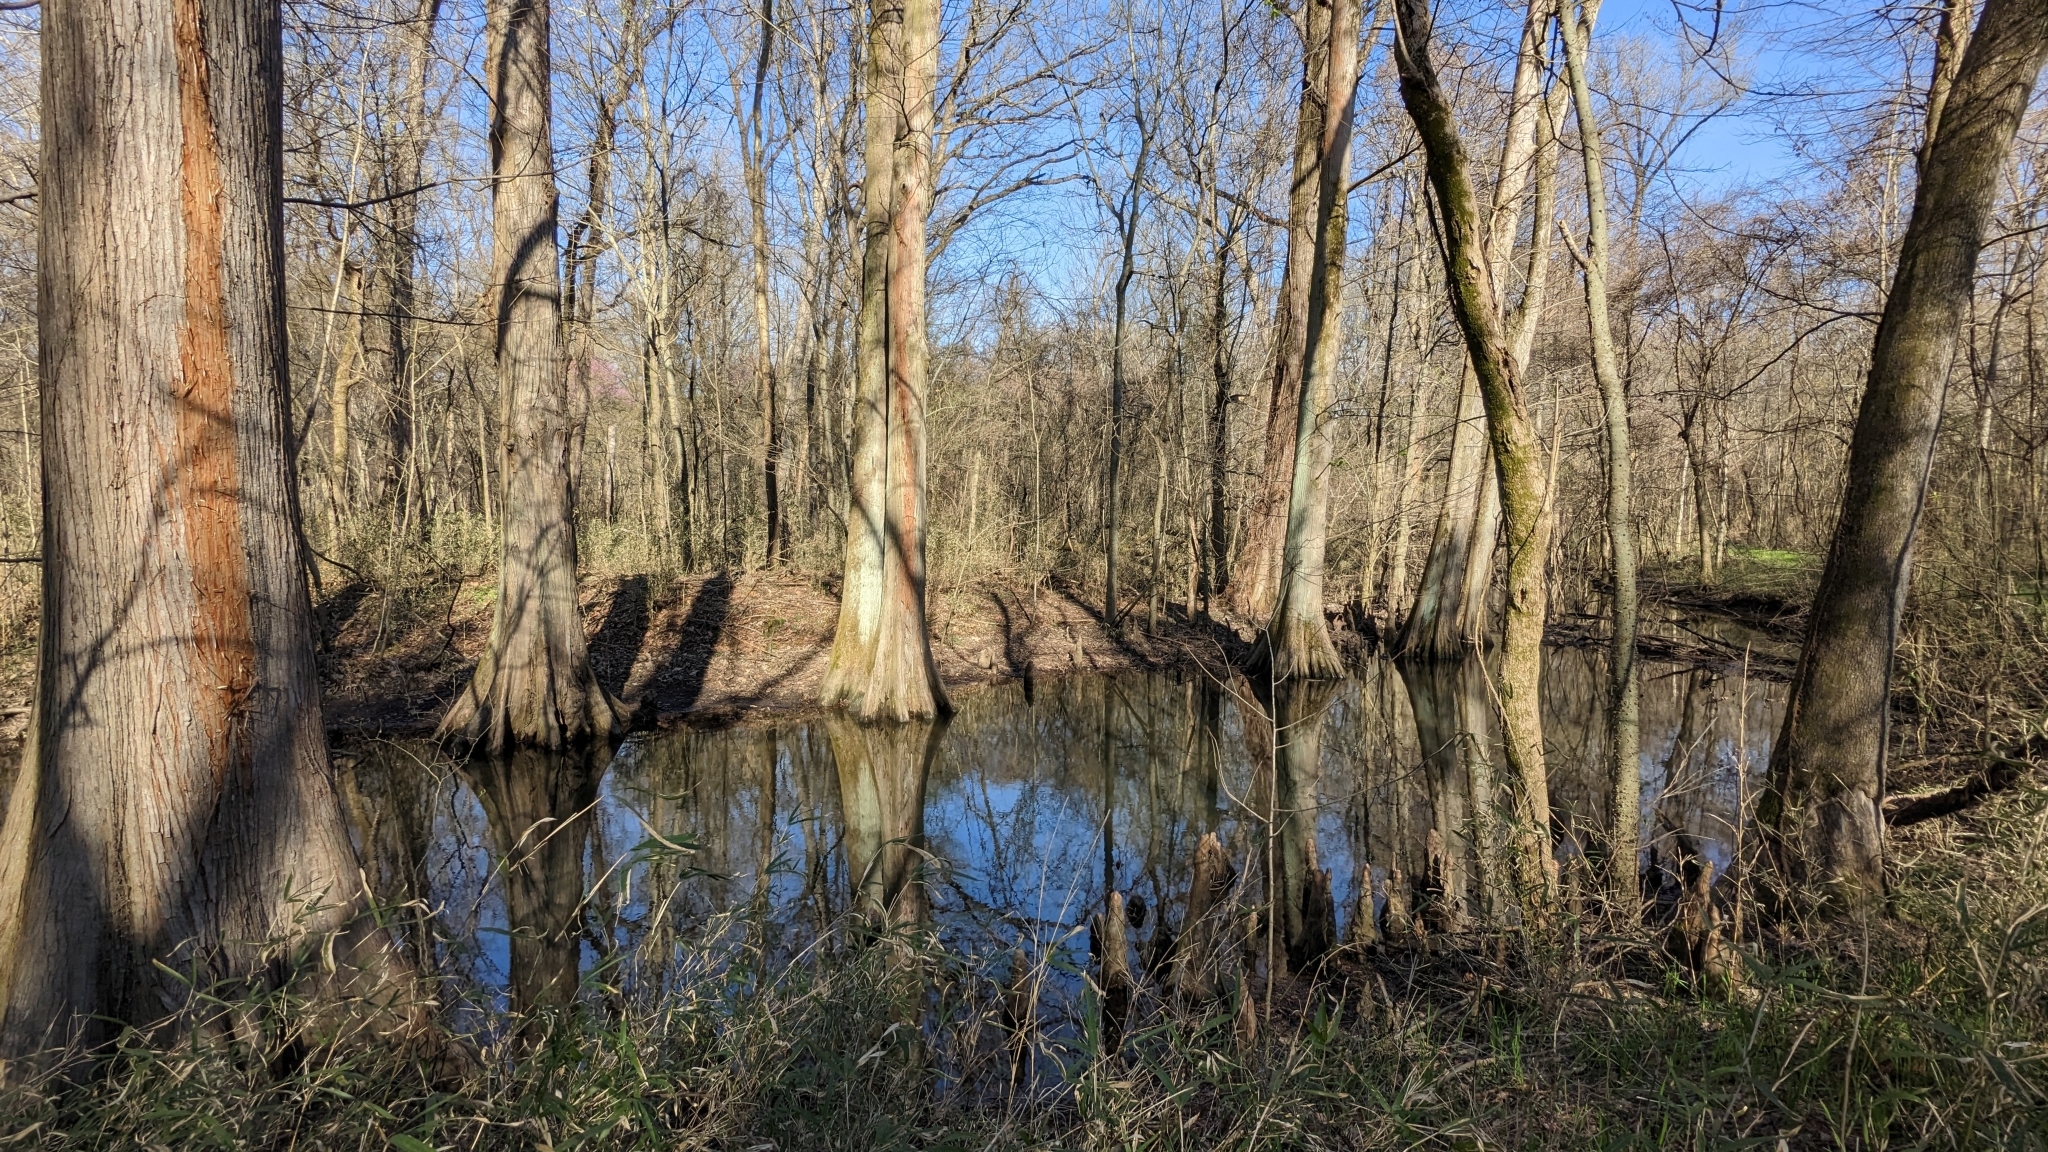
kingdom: Plantae
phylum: Tracheophyta
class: Pinopsida
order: Pinales
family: Cupressaceae
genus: Taxodium
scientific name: Taxodium distichum
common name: Bald cypress
